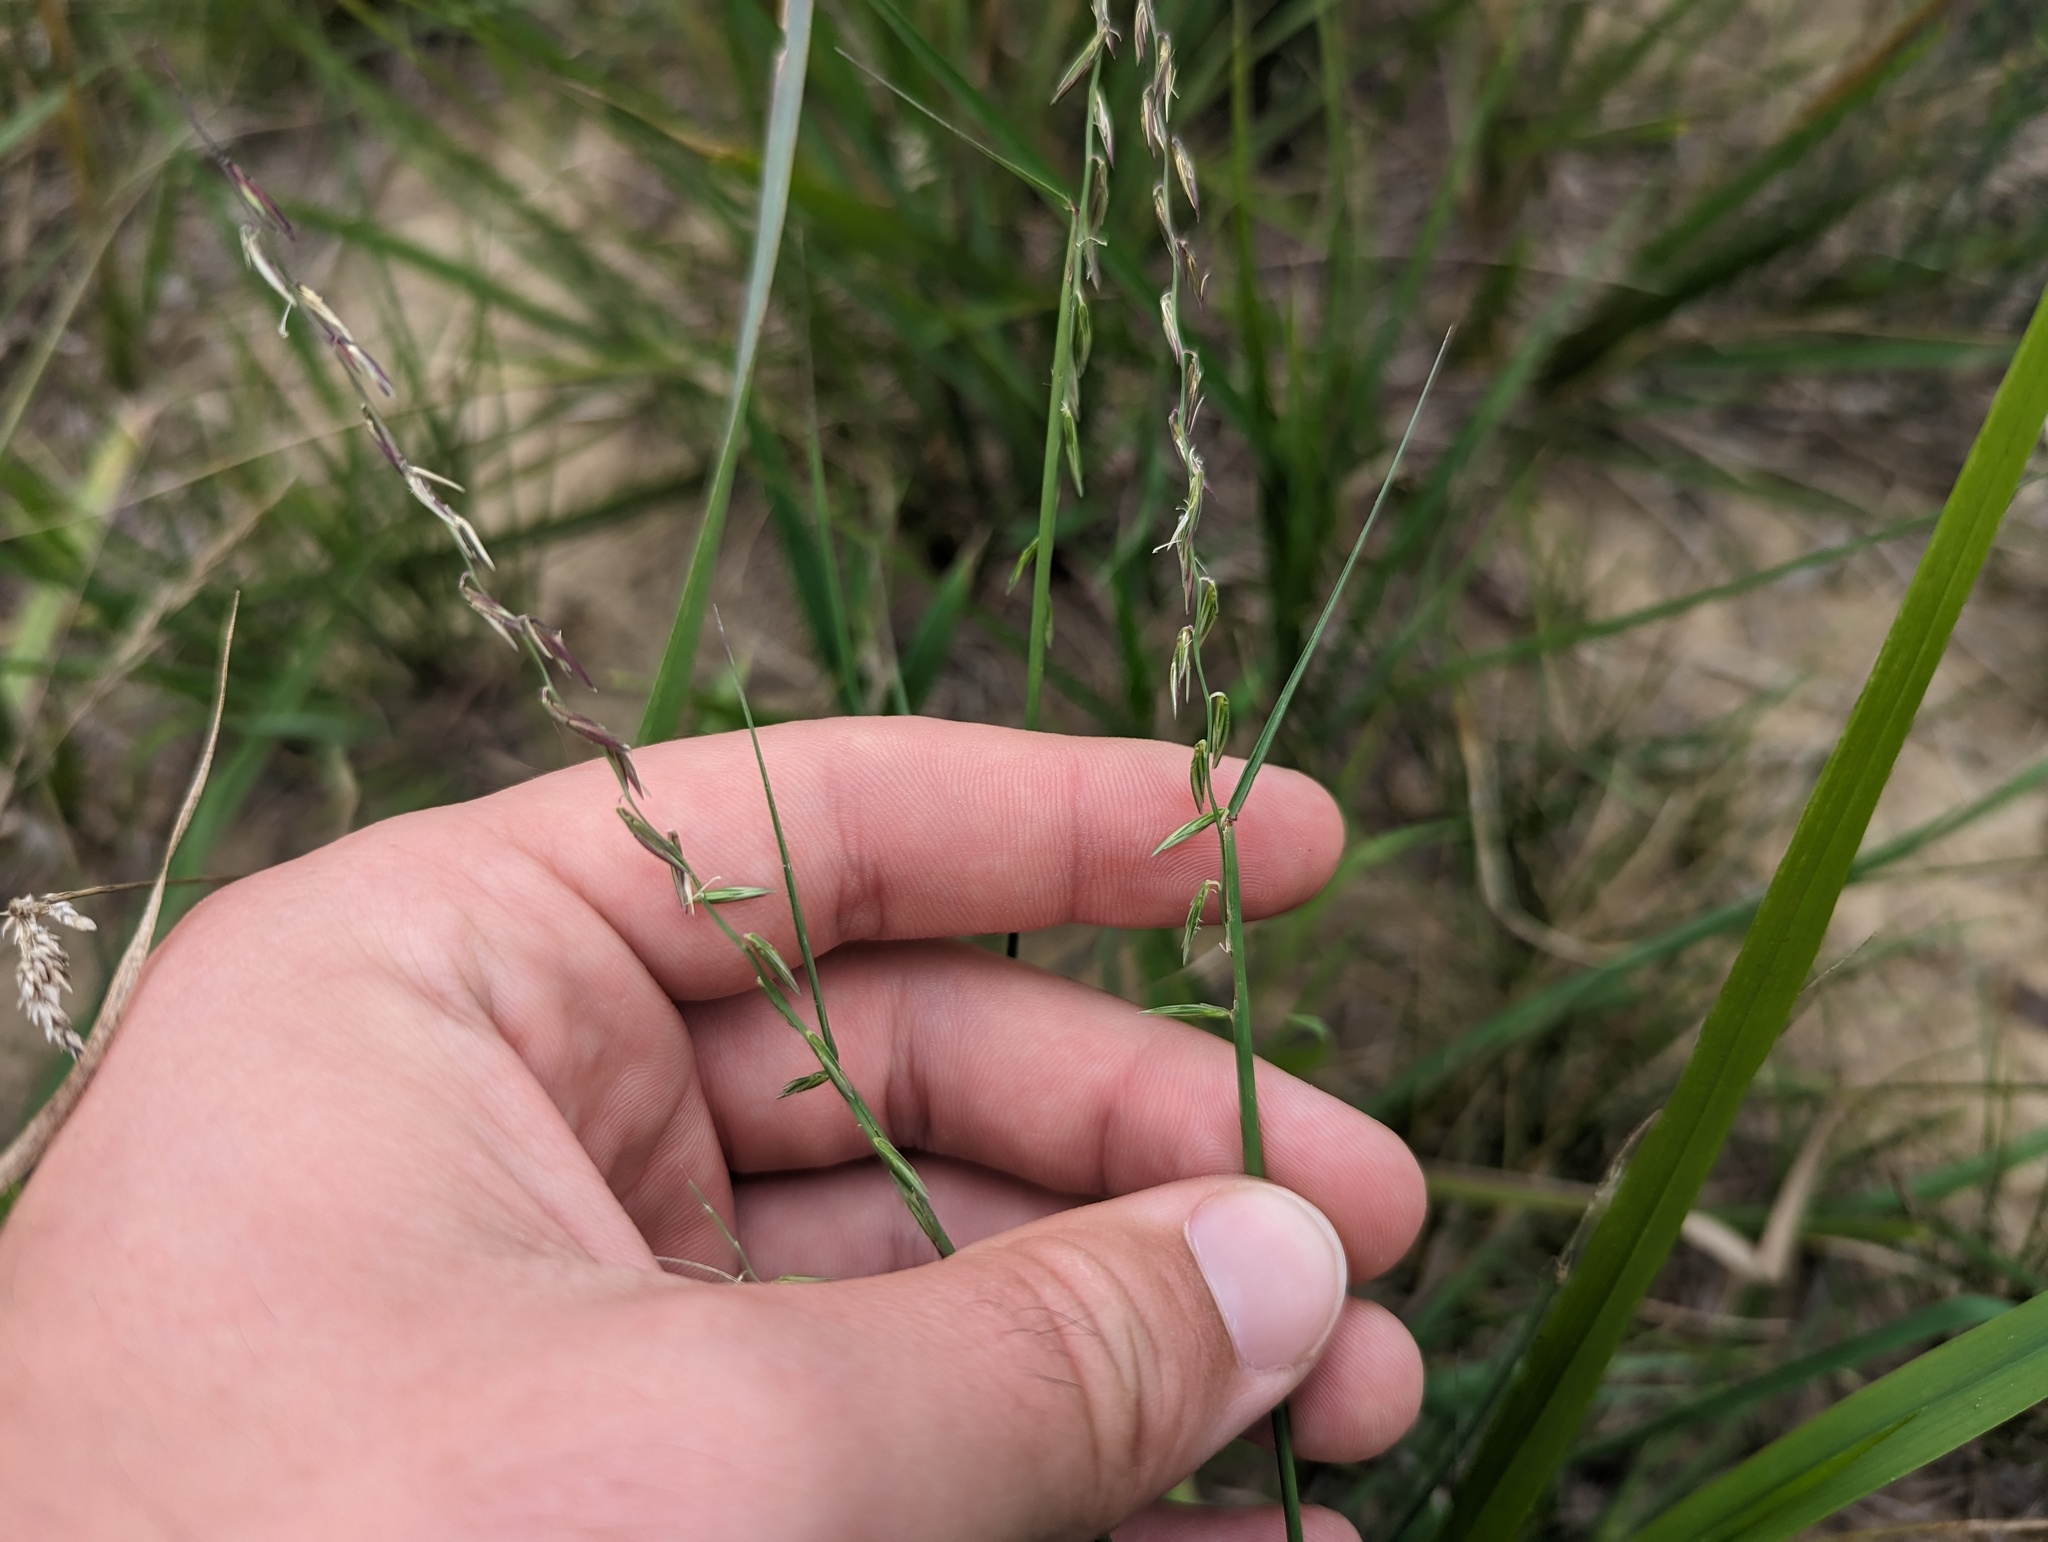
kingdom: Plantae
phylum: Tracheophyta
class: Liliopsida
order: Poales
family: Poaceae
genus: Bouteloua
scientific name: Bouteloua curtipendula
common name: Side-oats grama
